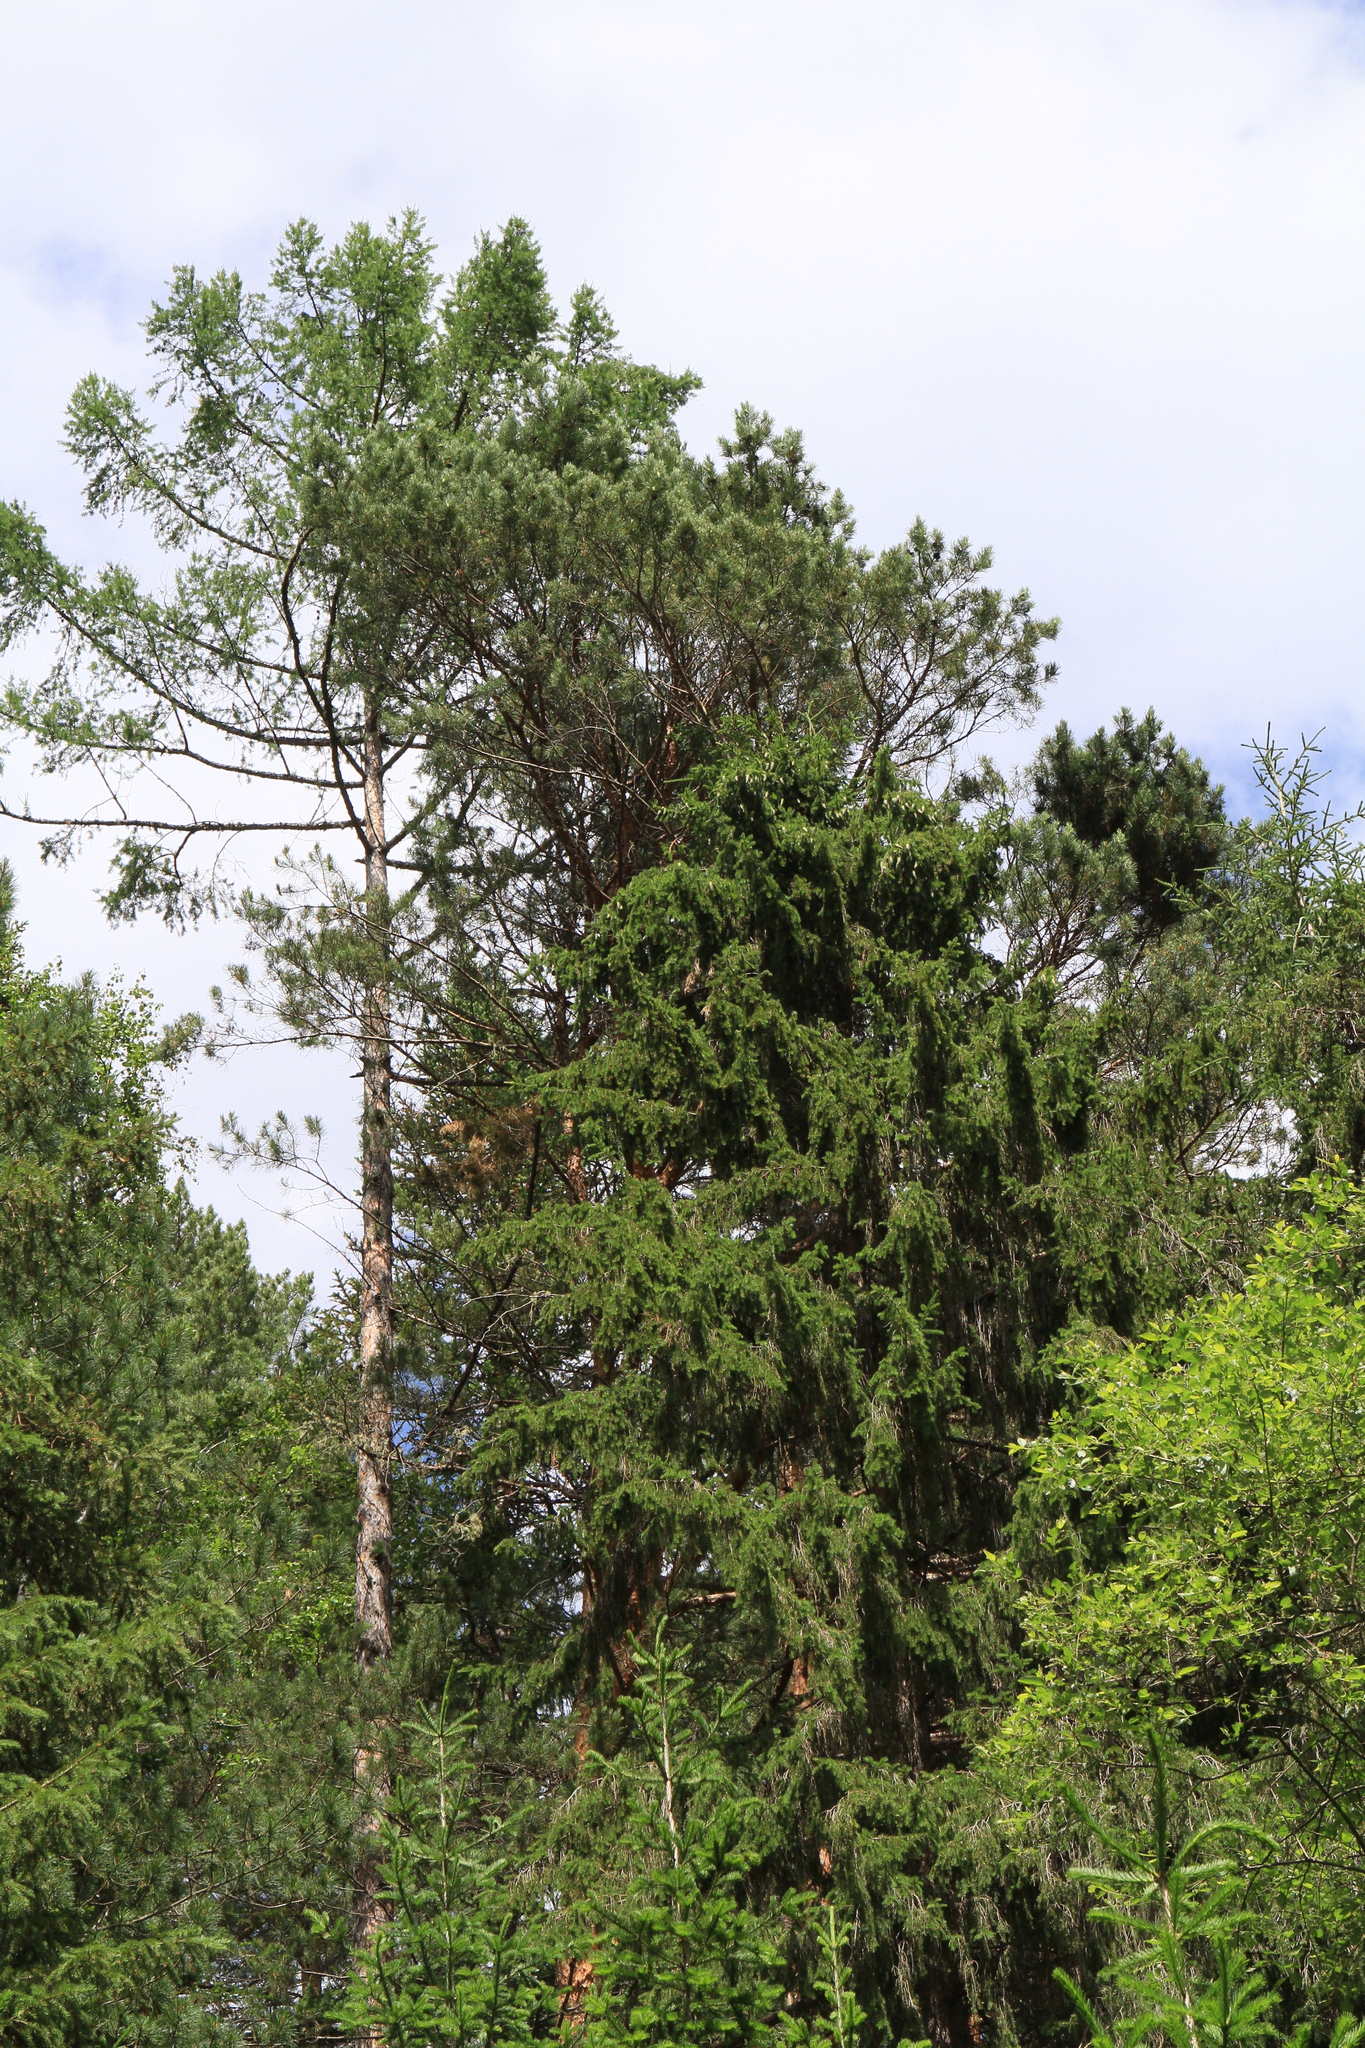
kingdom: Plantae
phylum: Tracheophyta
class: Pinopsida
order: Pinales
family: Pinaceae
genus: Picea
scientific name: Picea obovata
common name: Siberian spruce
